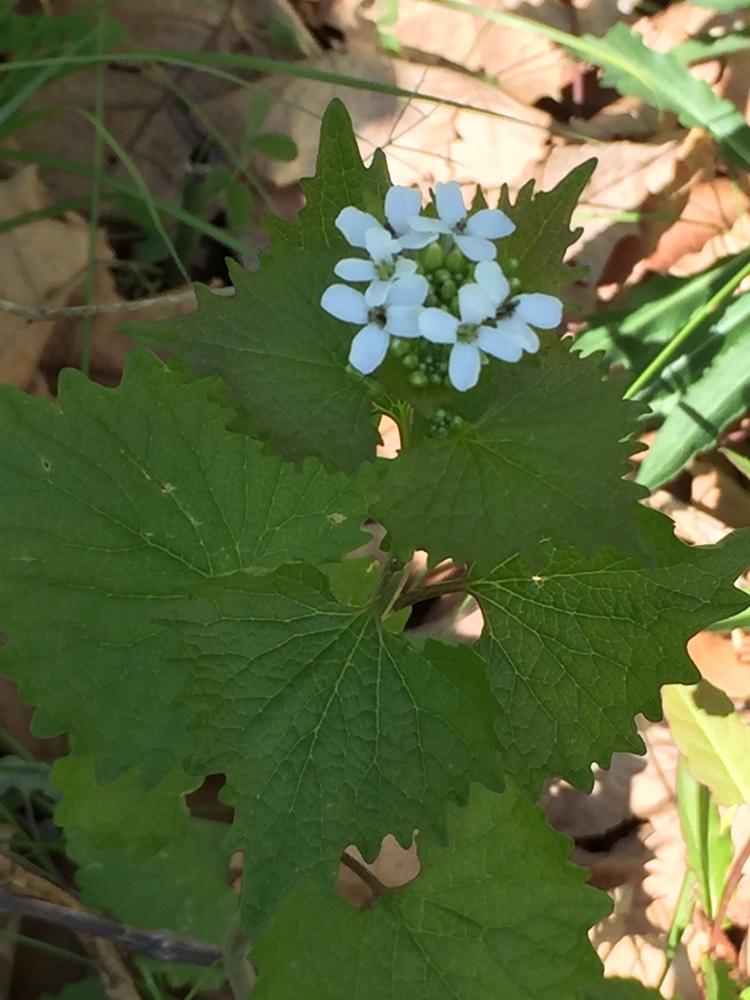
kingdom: Plantae
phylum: Tracheophyta
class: Magnoliopsida
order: Brassicales
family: Brassicaceae
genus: Alliaria
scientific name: Alliaria petiolata
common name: Garlic mustard
